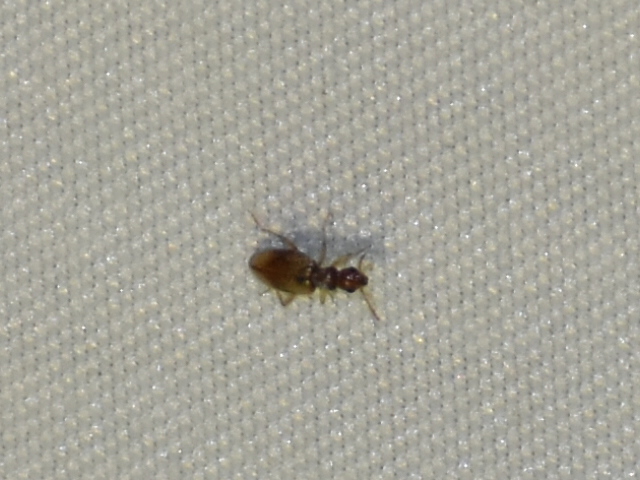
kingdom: Animalia
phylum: Arthropoda
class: Insecta
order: Coleoptera
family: Anthicidae
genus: Anthicus
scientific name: Anthicus ephippium
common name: Antlike flower beetle
